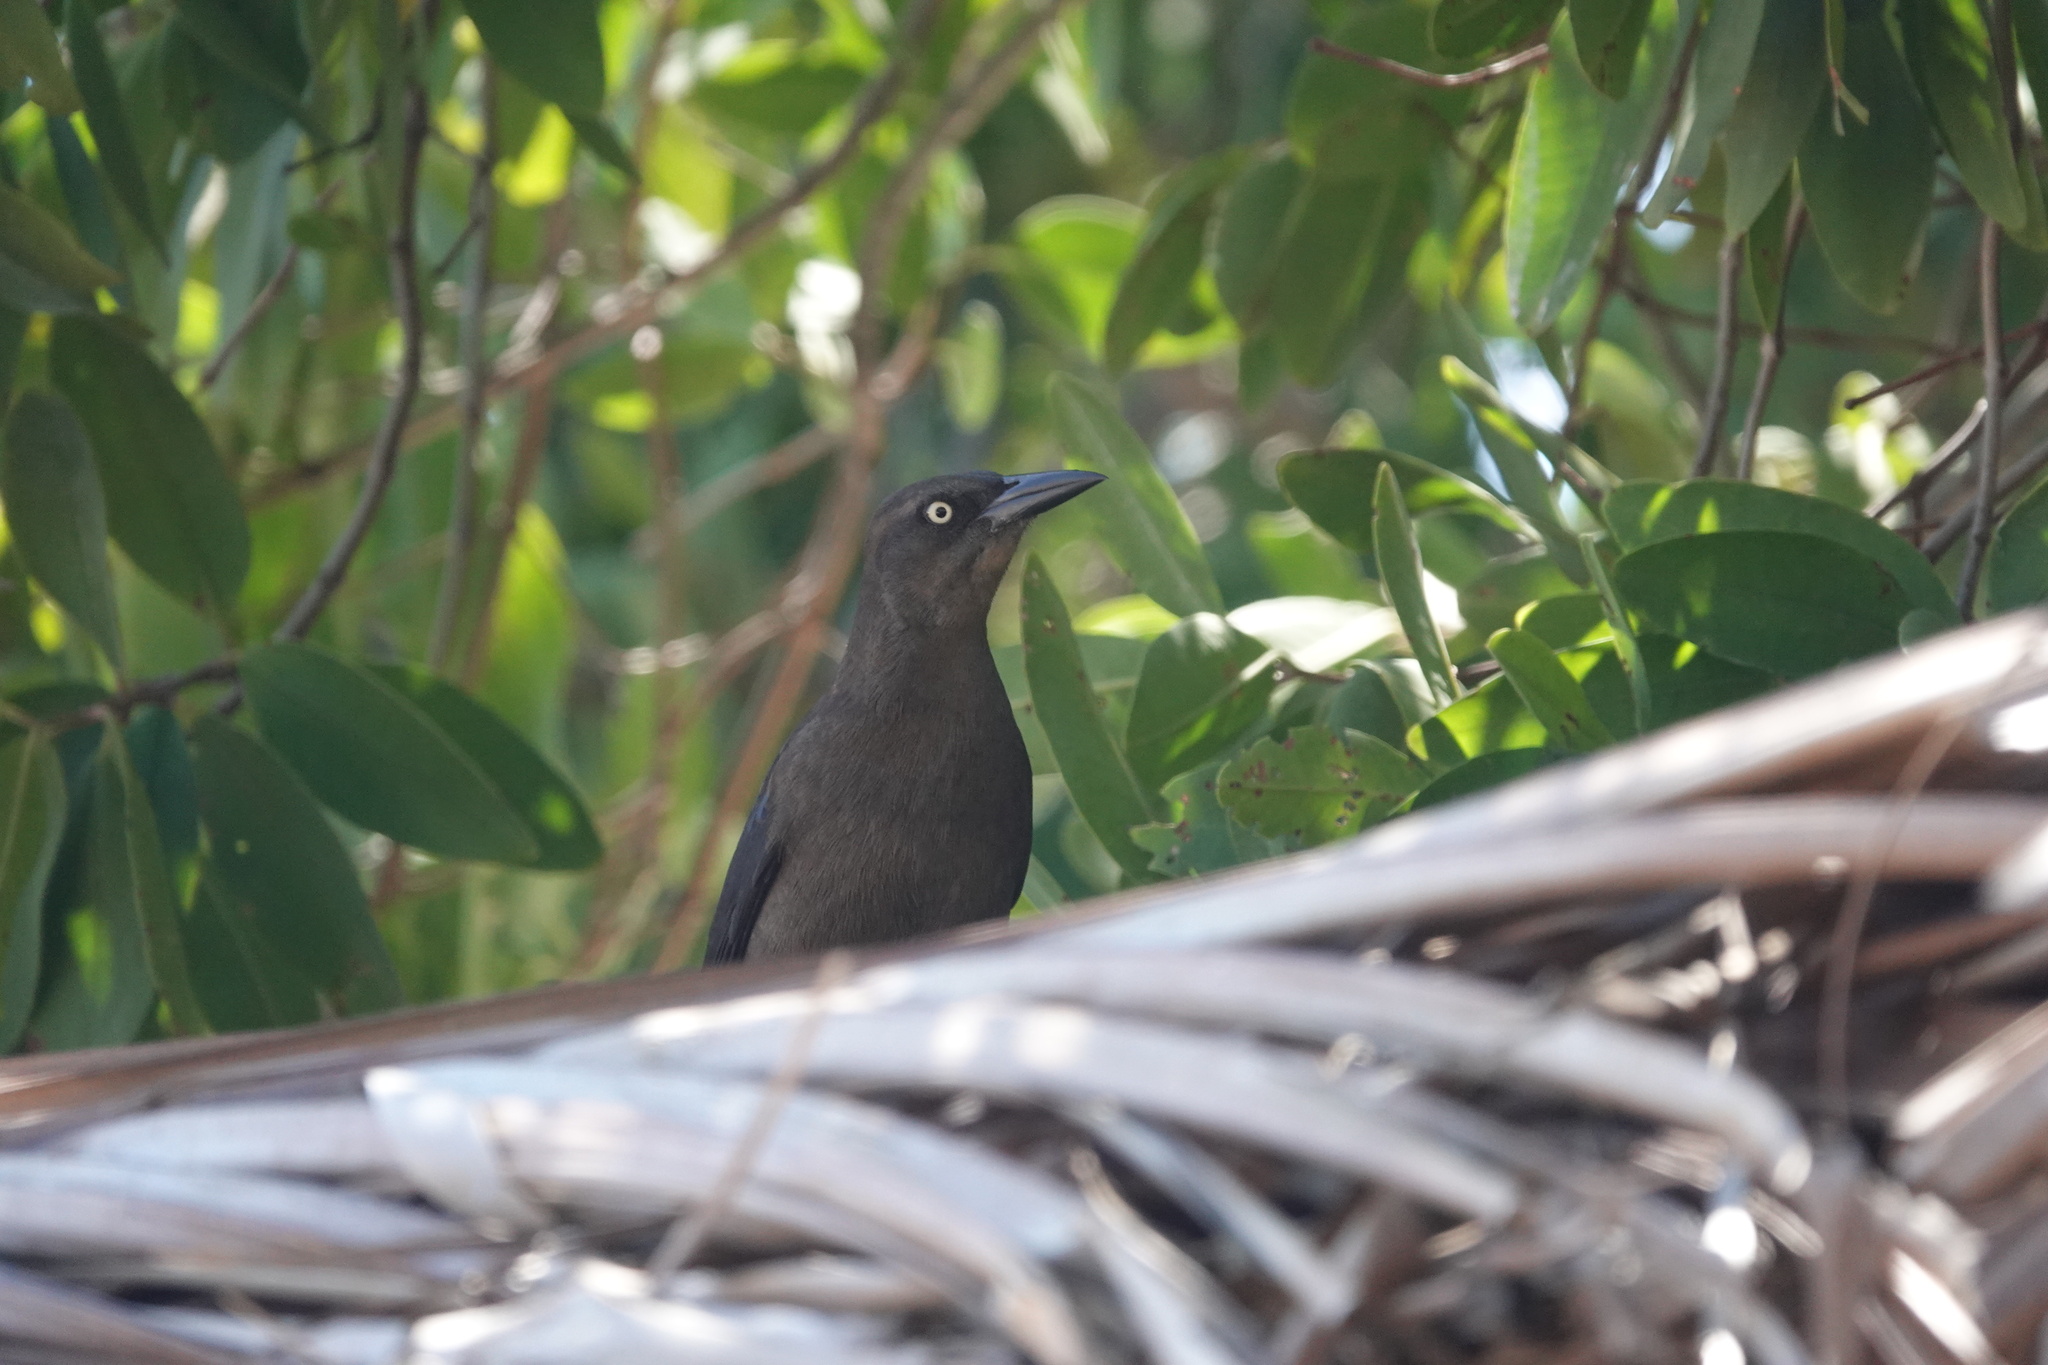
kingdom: Animalia
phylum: Chordata
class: Aves
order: Passeriformes
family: Icteridae
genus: Quiscalus
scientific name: Quiscalus mexicanus
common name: Great-tailed grackle
